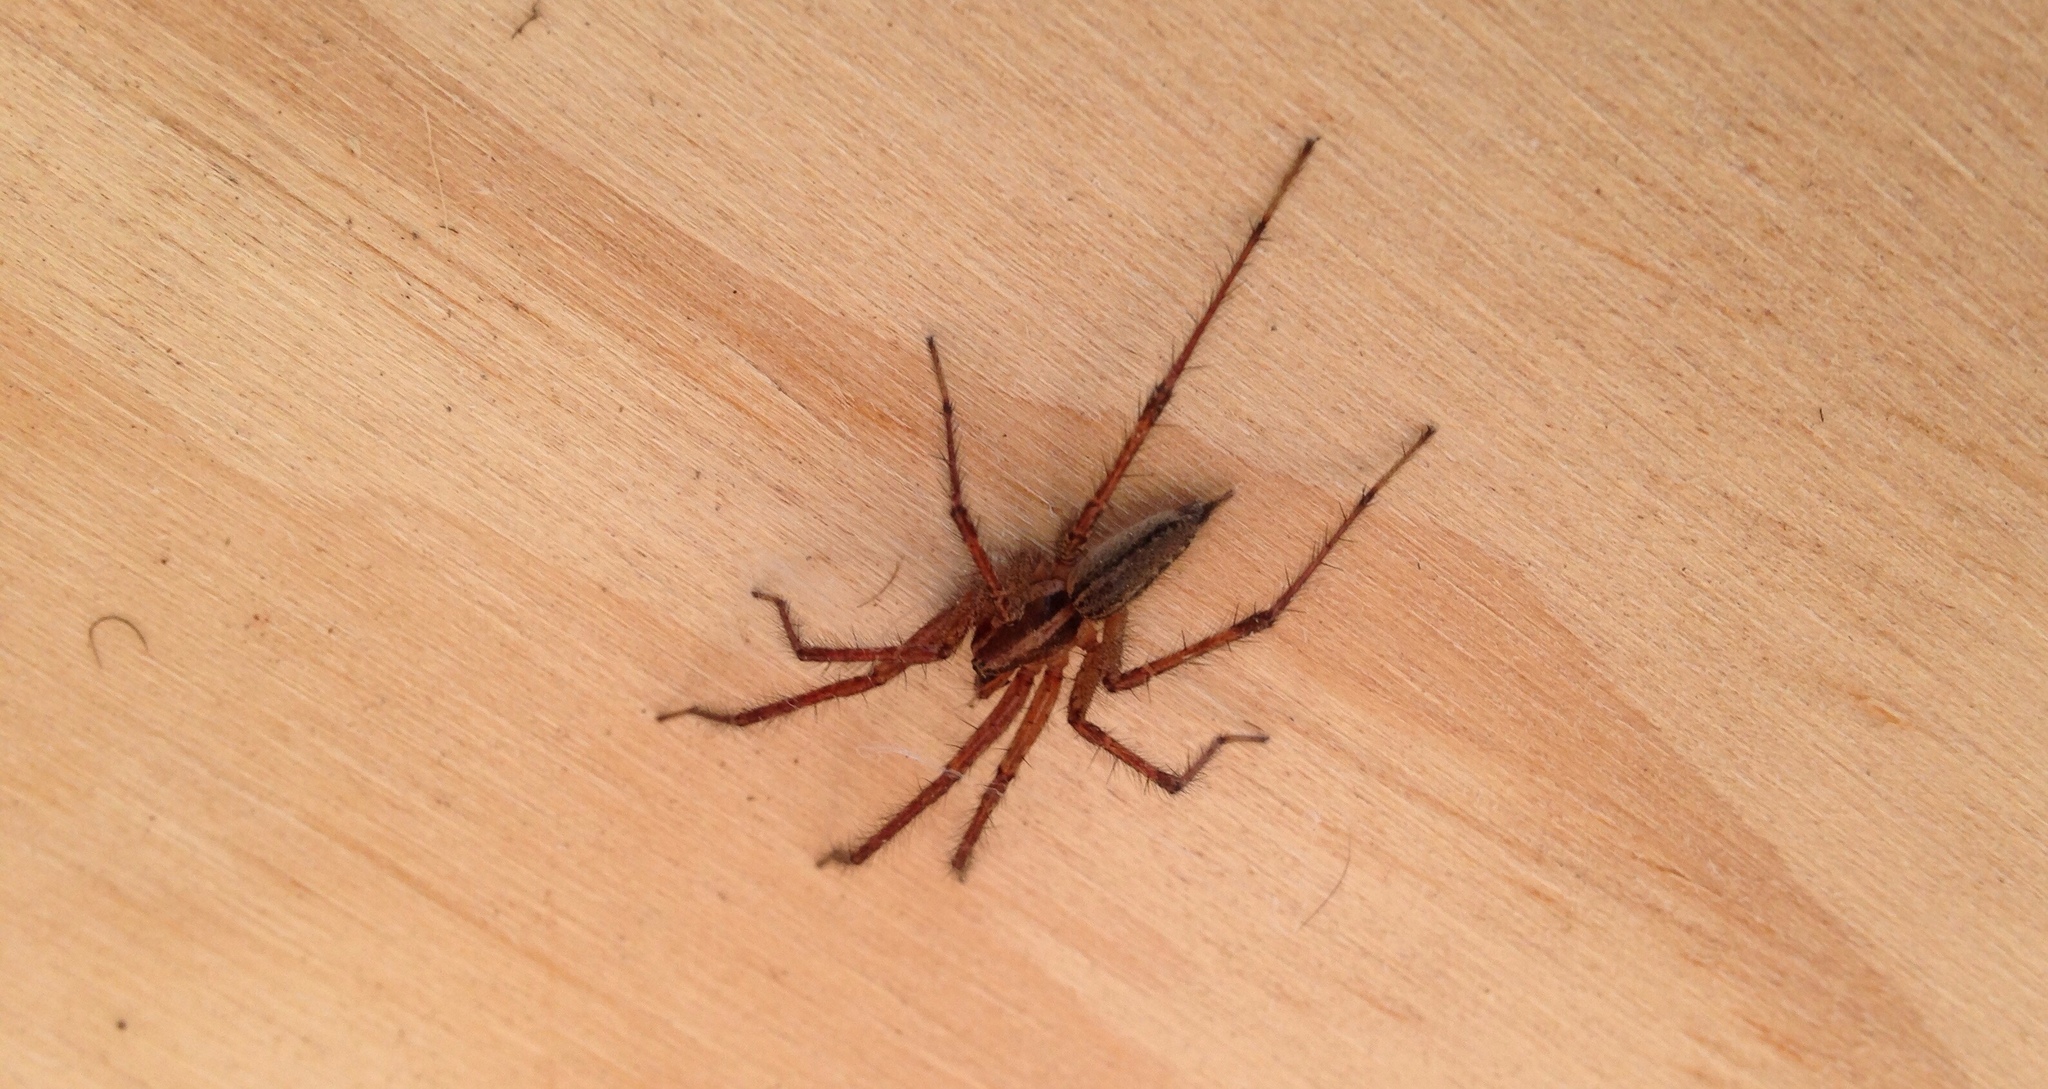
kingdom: Animalia
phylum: Arthropoda
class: Arachnida
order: Araneae
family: Agelenidae
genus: Agelenopsis
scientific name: Agelenopsis
